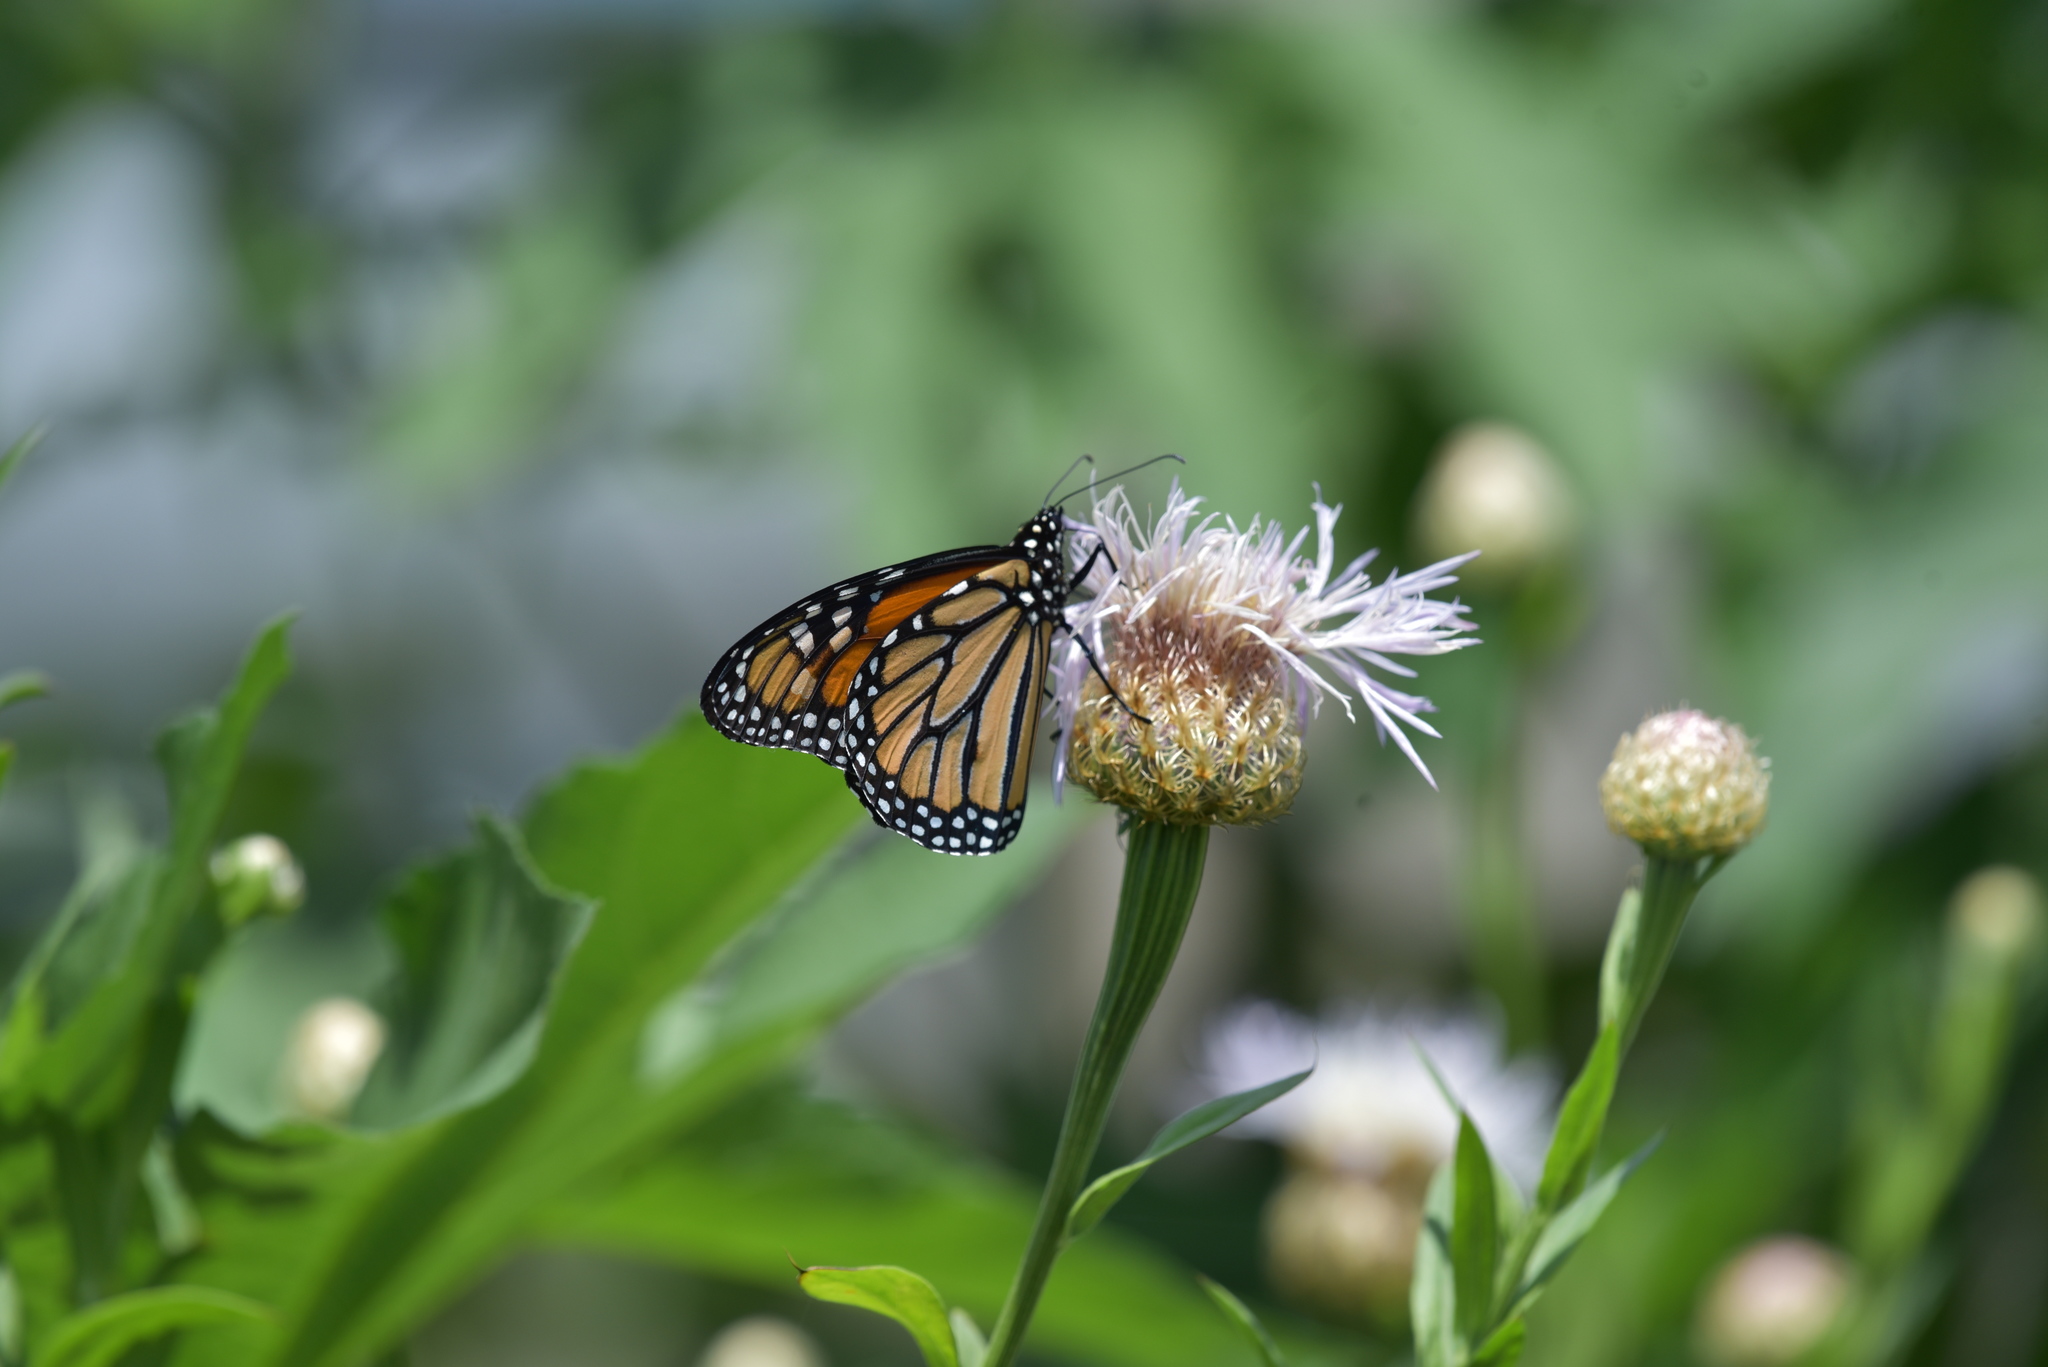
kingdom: Animalia
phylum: Arthropoda
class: Insecta
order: Lepidoptera
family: Nymphalidae
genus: Danaus
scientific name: Danaus plexippus
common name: Monarch
